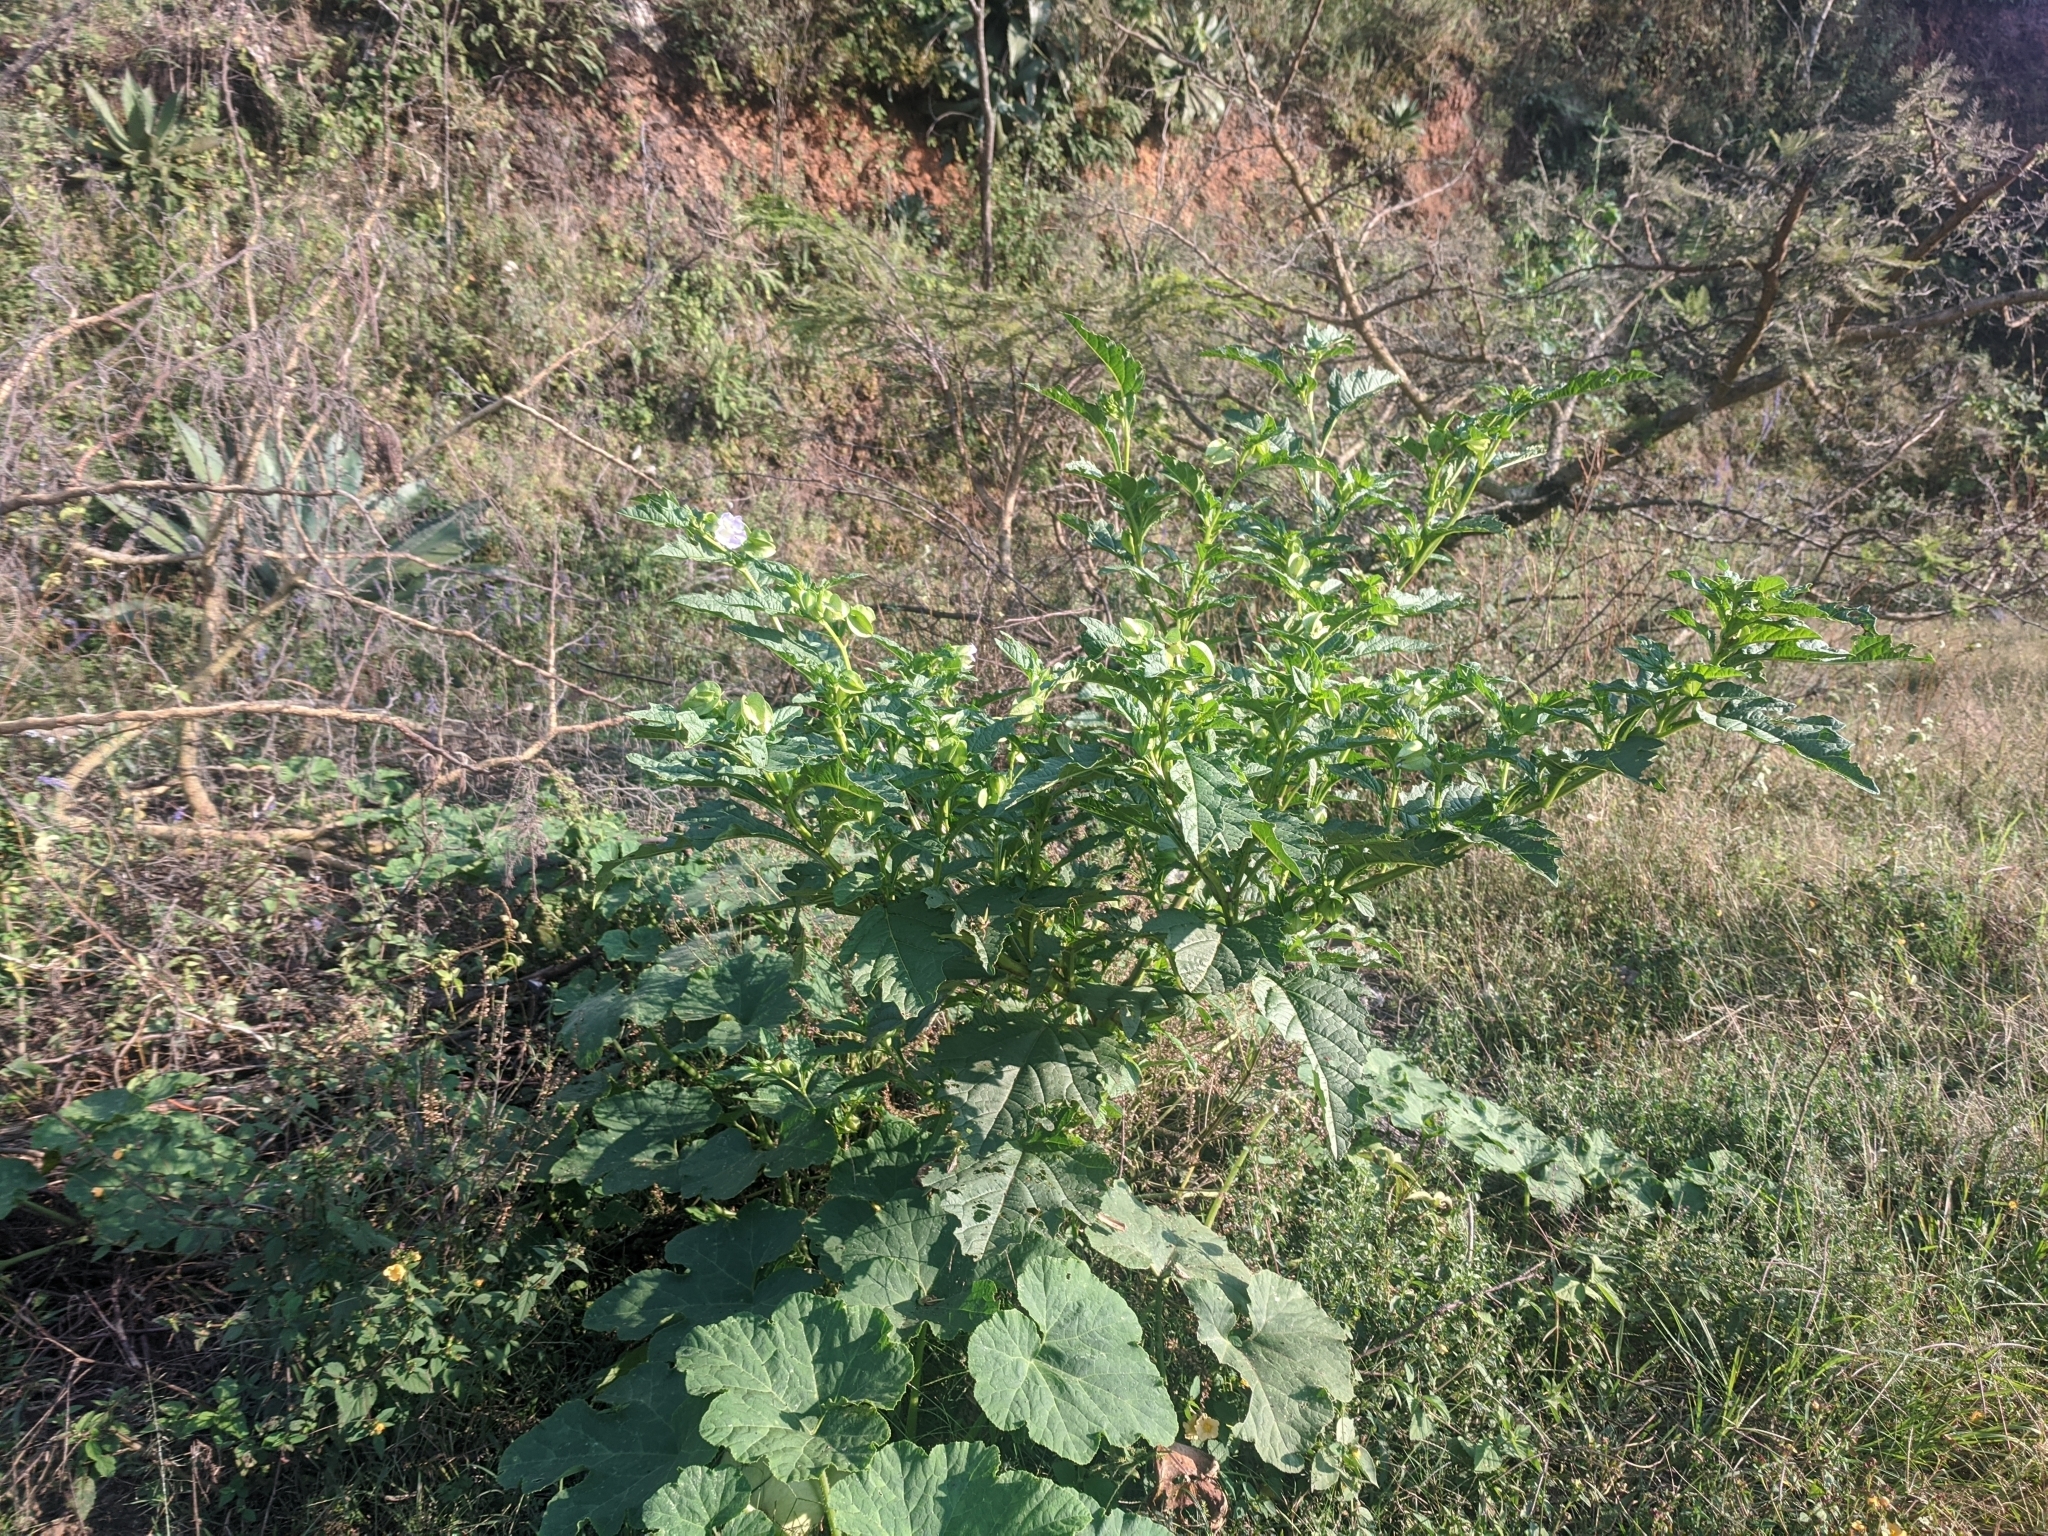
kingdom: Plantae
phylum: Tracheophyta
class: Magnoliopsida
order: Solanales
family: Solanaceae
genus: Nicandra
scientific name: Nicandra physalodes
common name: Apple-of-peru
